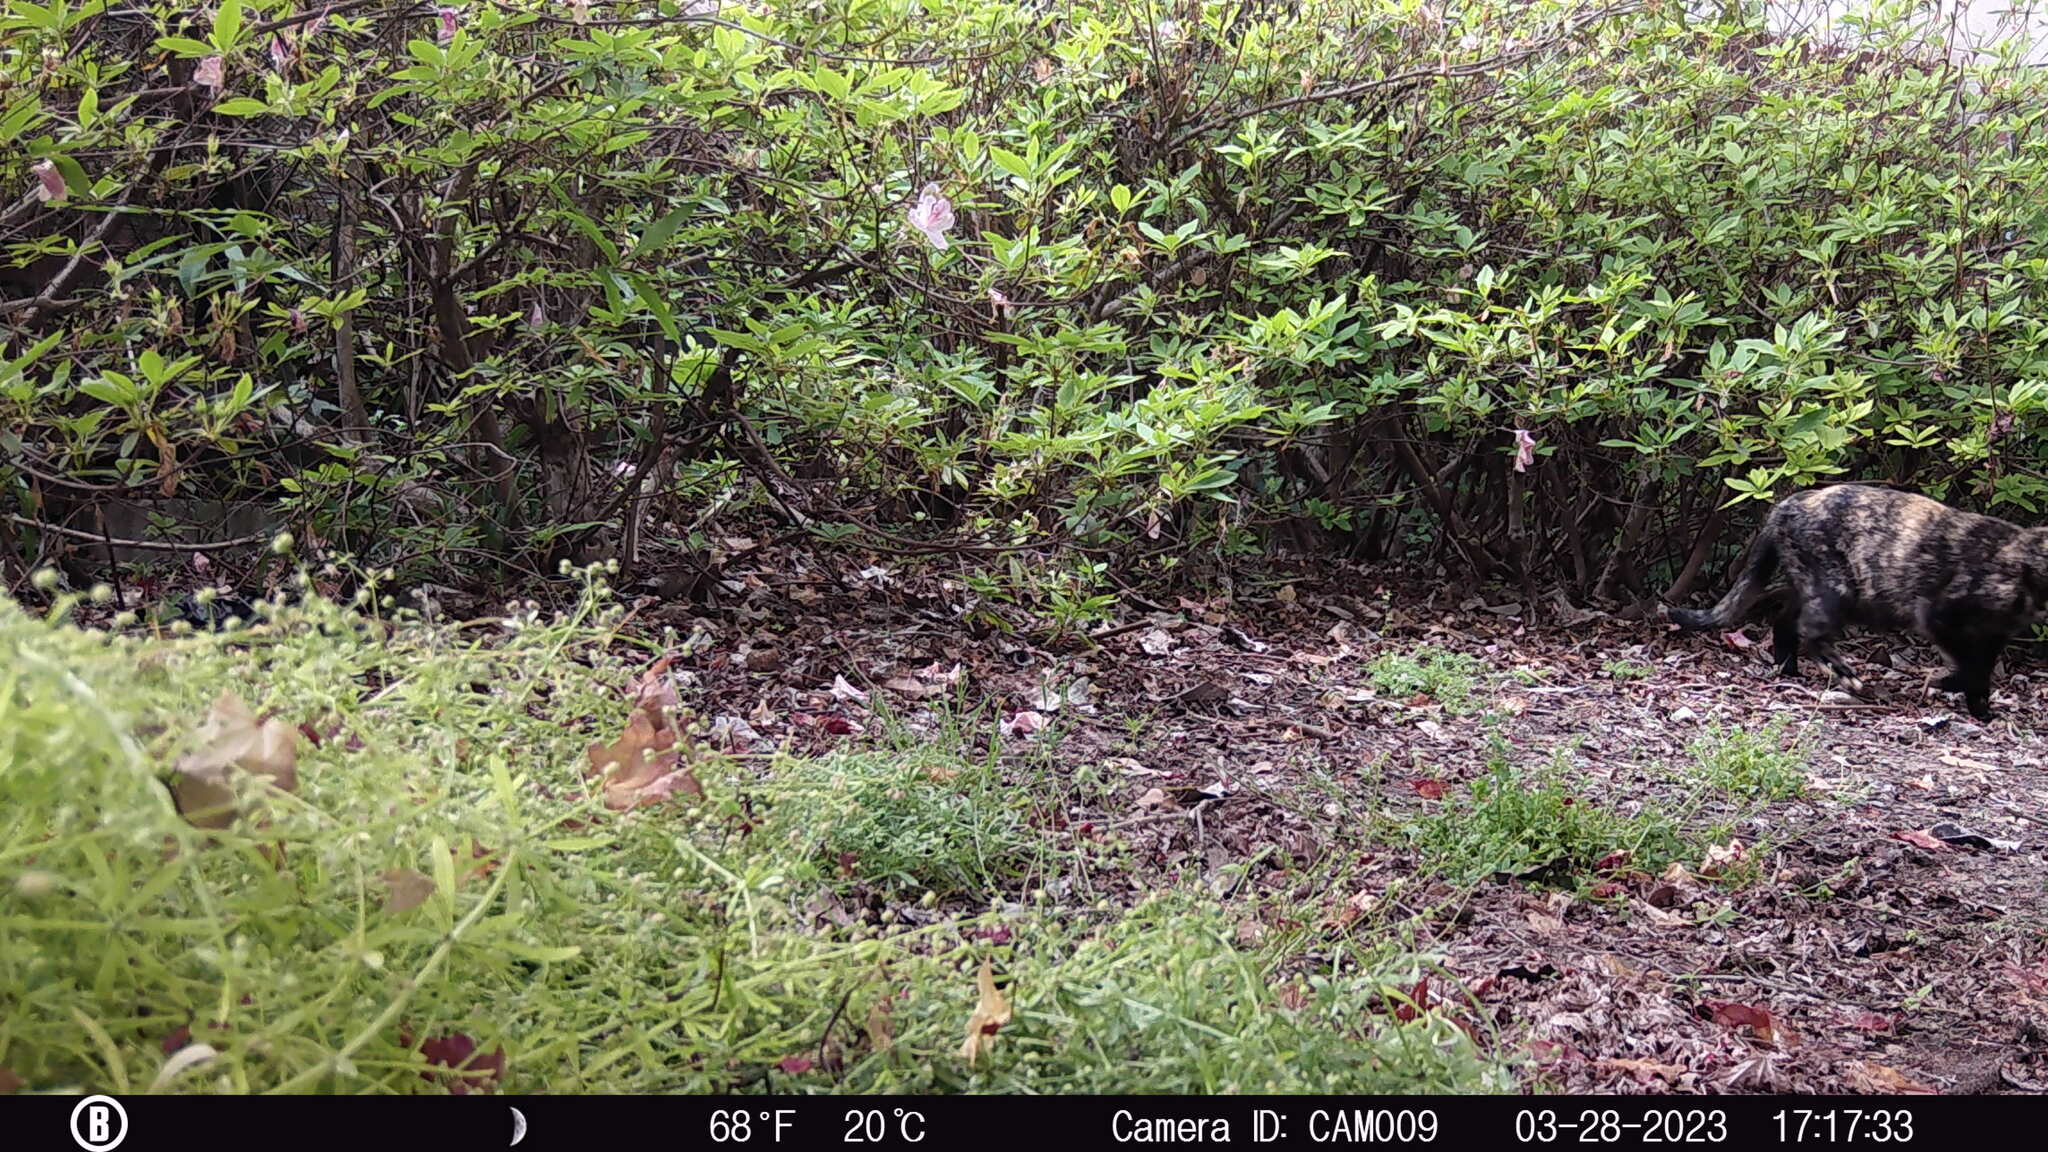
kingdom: Animalia
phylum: Chordata
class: Mammalia
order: Carnivora
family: Felidae
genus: Felis
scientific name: Felis catus
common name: Domestic cat
